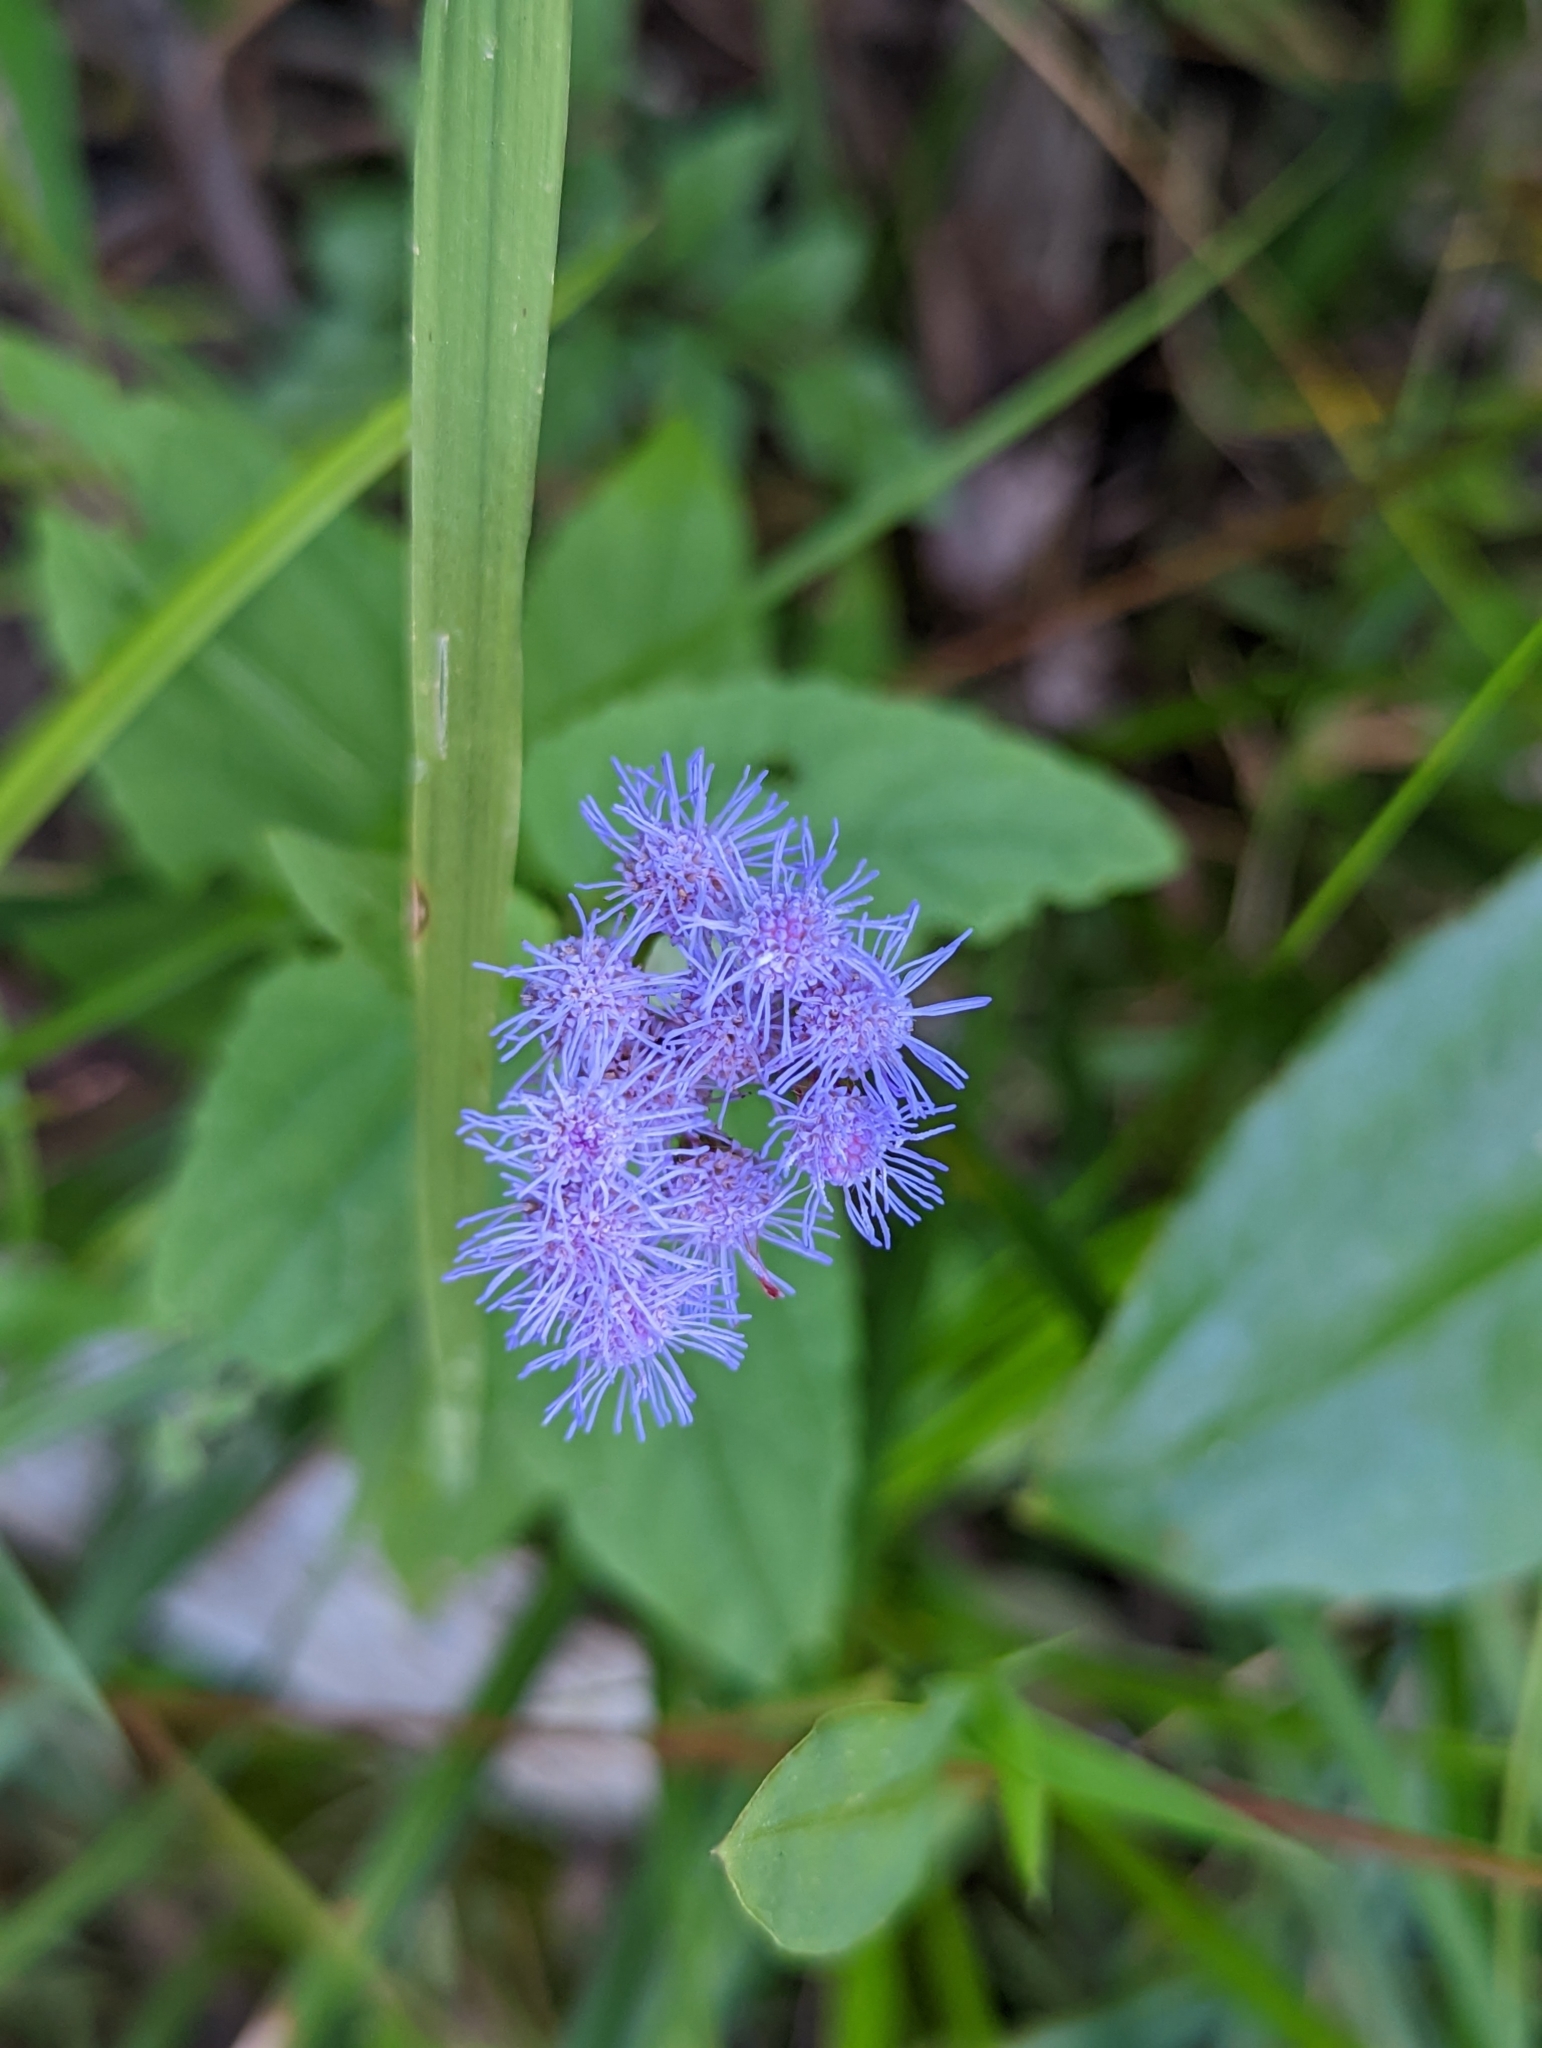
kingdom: Plantae
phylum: Tracheophyta
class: Magnoliopsida
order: Asterales
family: Asteraceae
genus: Conoclinium
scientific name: Conoclinium coelestinum
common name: Blue mistflower
